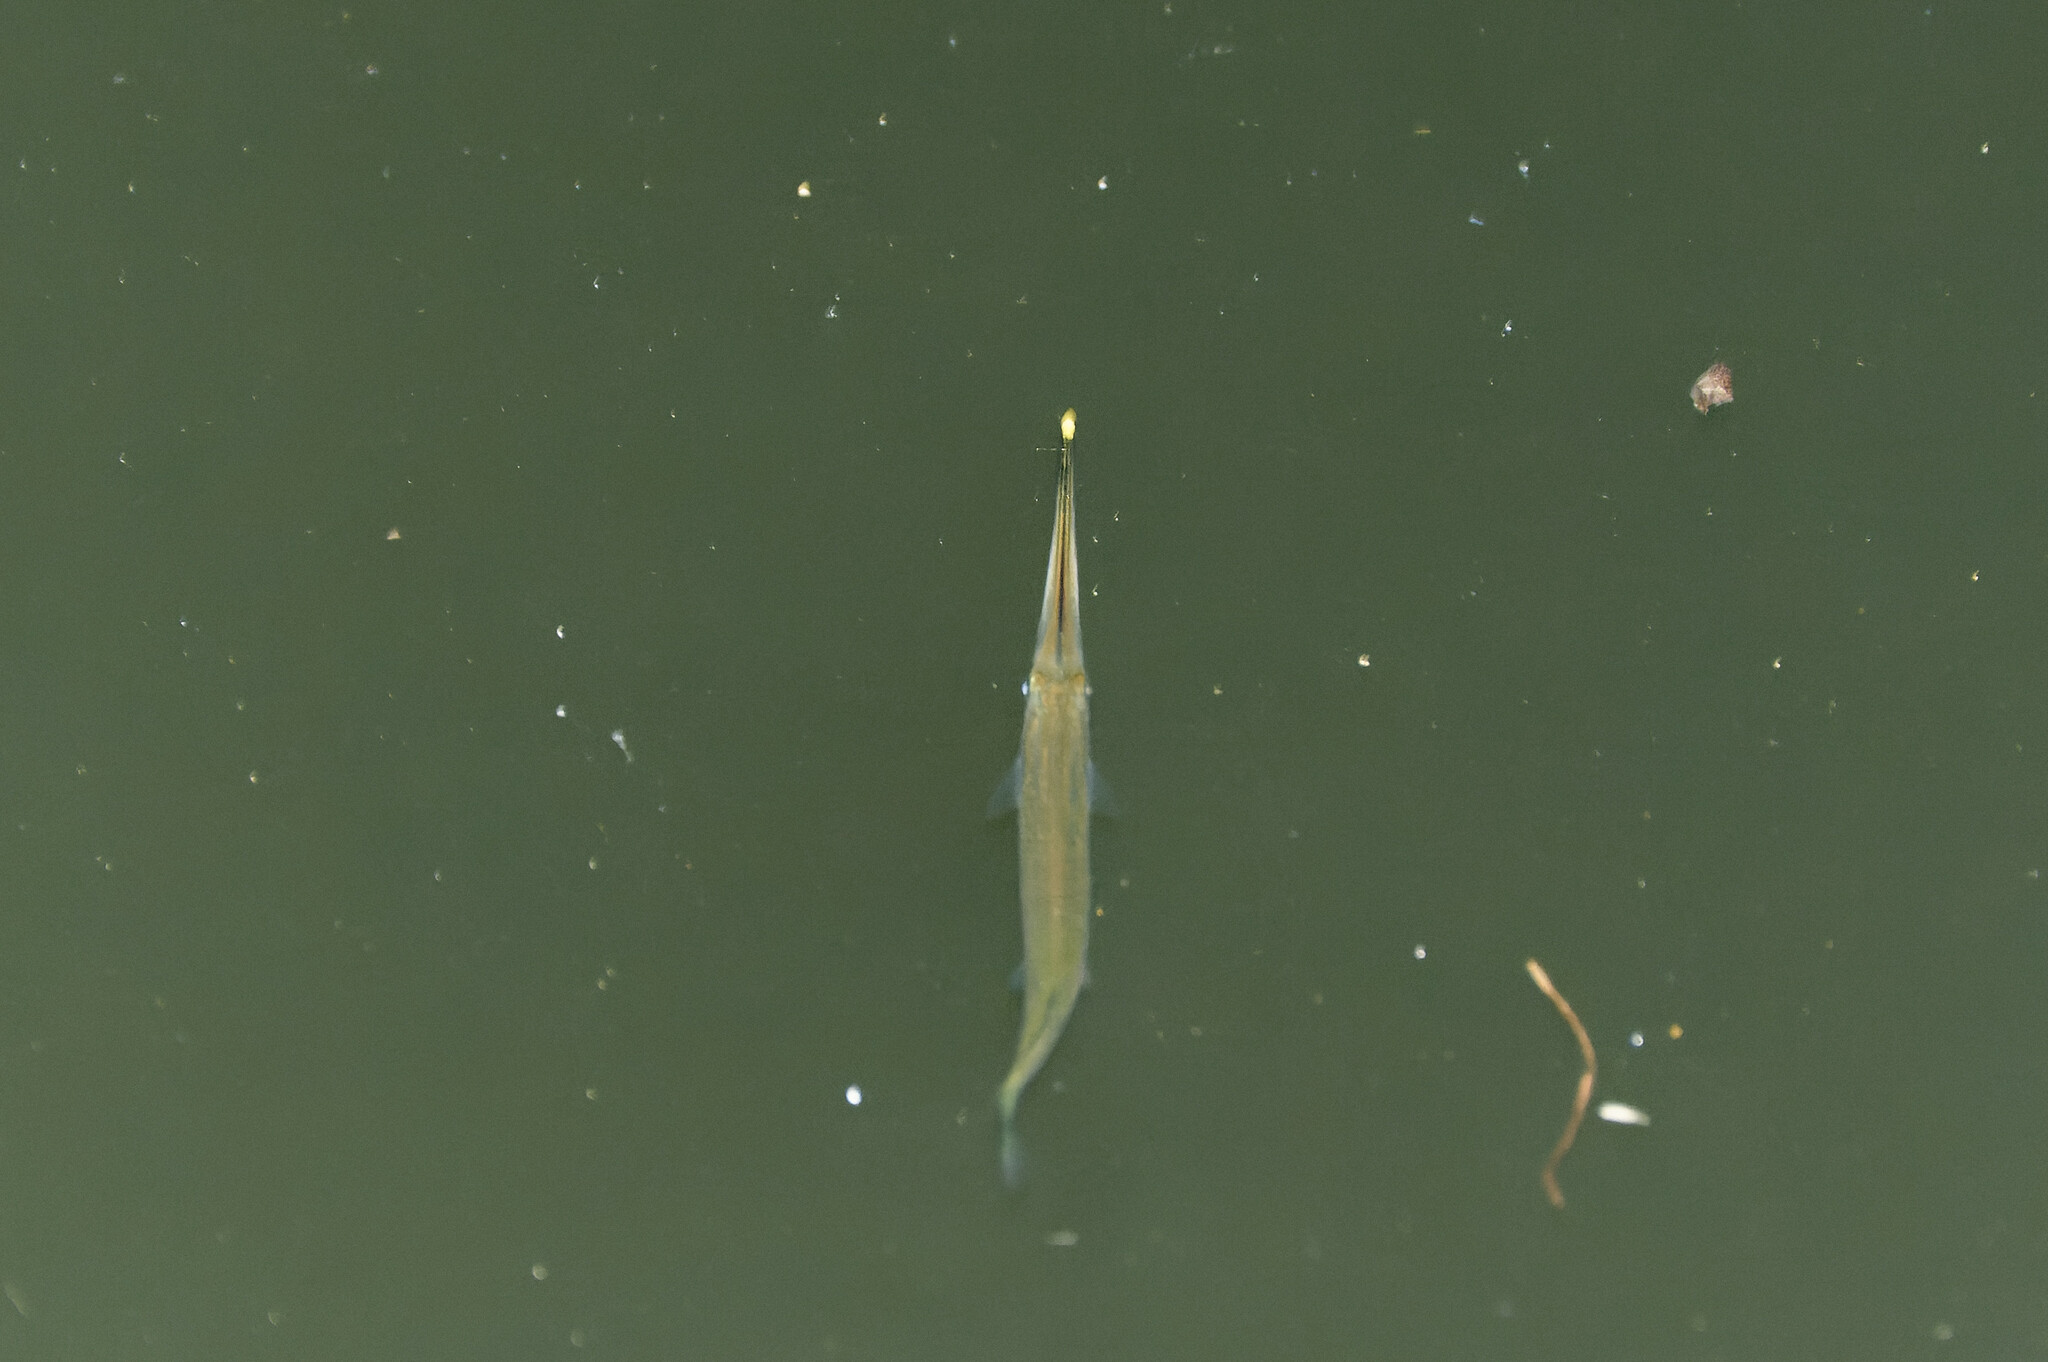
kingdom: Animalia
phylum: Chordata
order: Beloniformes
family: Zenarchopteridae
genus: Zenarchopterus
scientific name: Zenarchopterus buffonis
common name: Buffon's river-garfish
